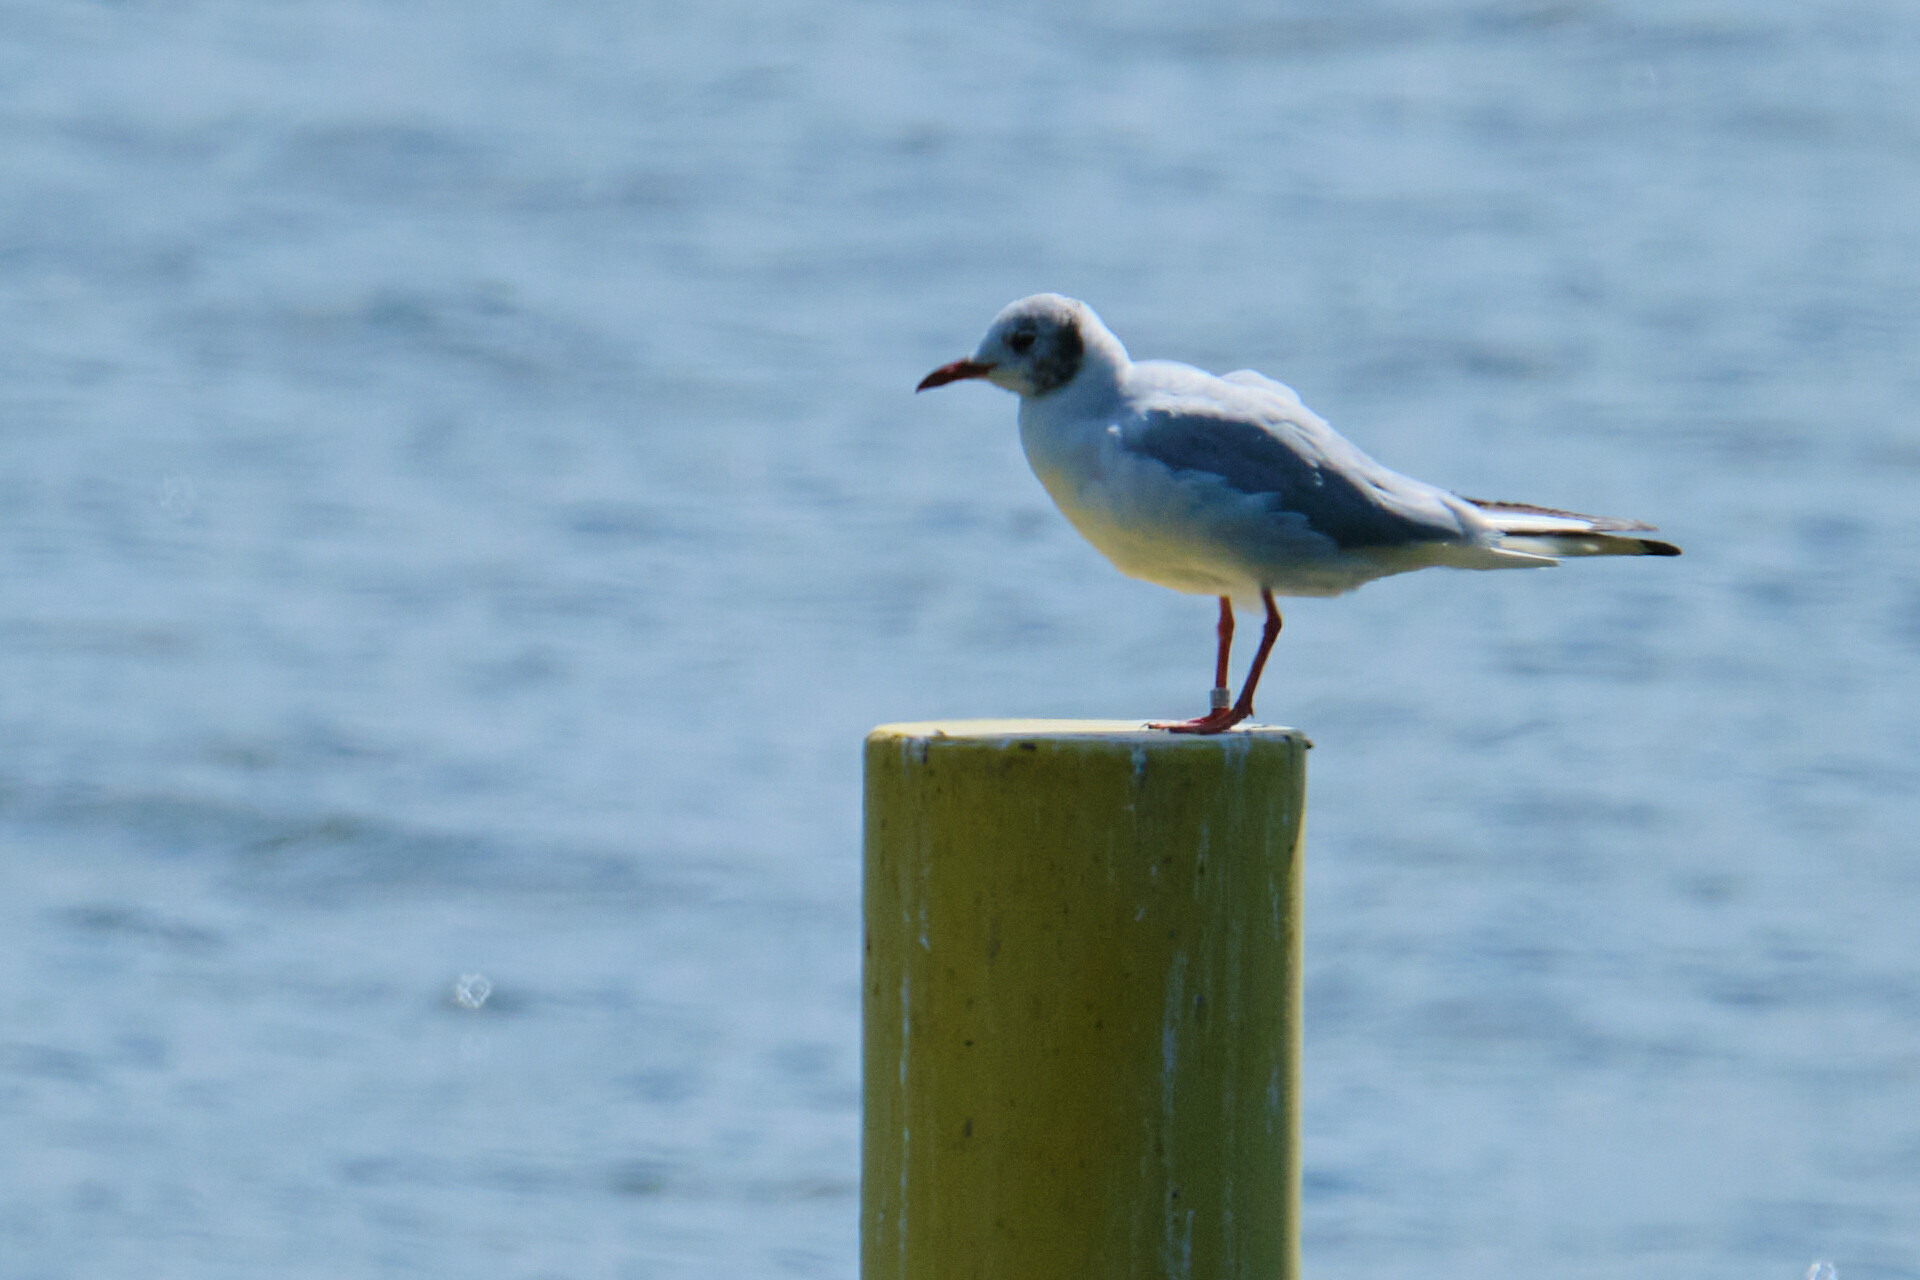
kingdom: Animalia
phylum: Chordata
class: Aves
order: Charadriiformes
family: Laridae
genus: Chroicocephalus
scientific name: Chroicocephalus ridibundus
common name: Black-headed gull
